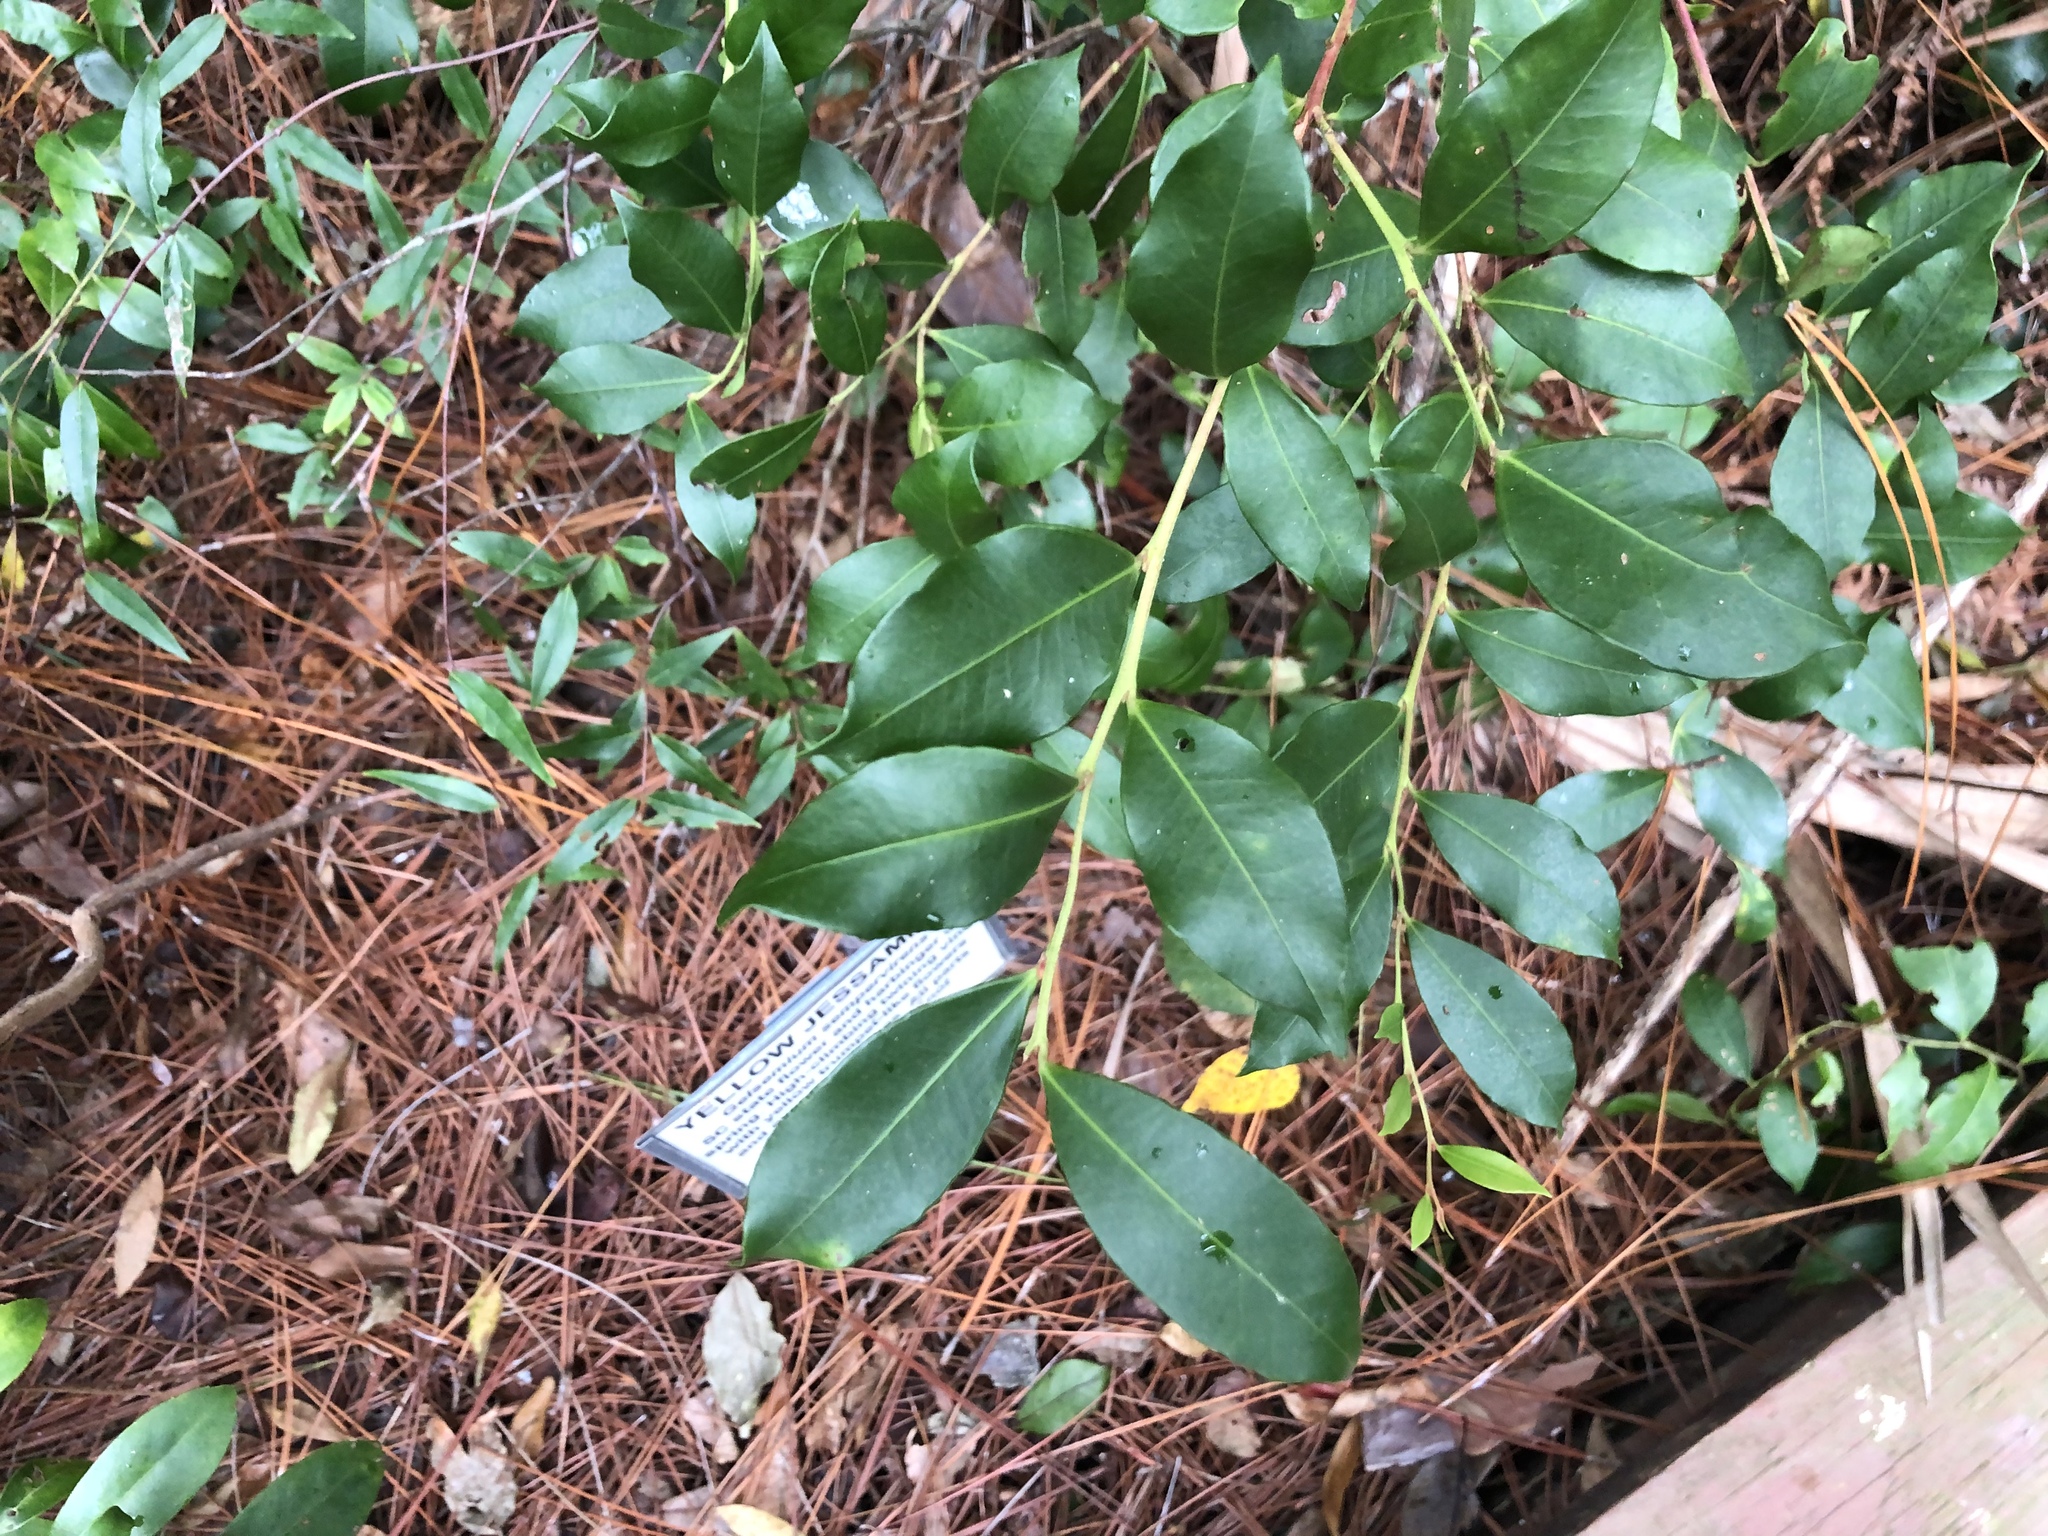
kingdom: Plantae
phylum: Tracheophyta
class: Magnoliopsida
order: Aquifoliales
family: Aquifoliaceae
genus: Ilex
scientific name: Ilex vomitoria
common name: Yaupon holly
